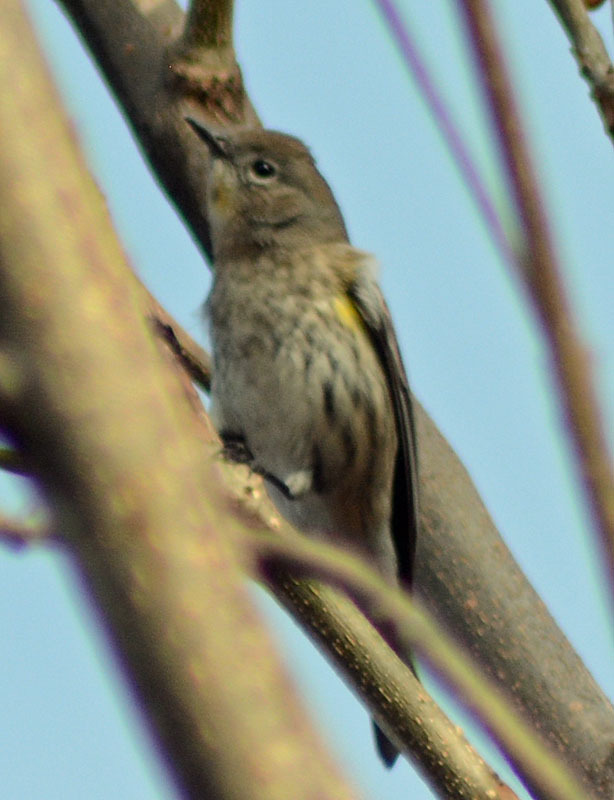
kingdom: Animalia
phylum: Chordata
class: Aves
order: Passeriformes
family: Parulidae
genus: Setophaga
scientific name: Setophaga coronata
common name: Myrtle warbler
